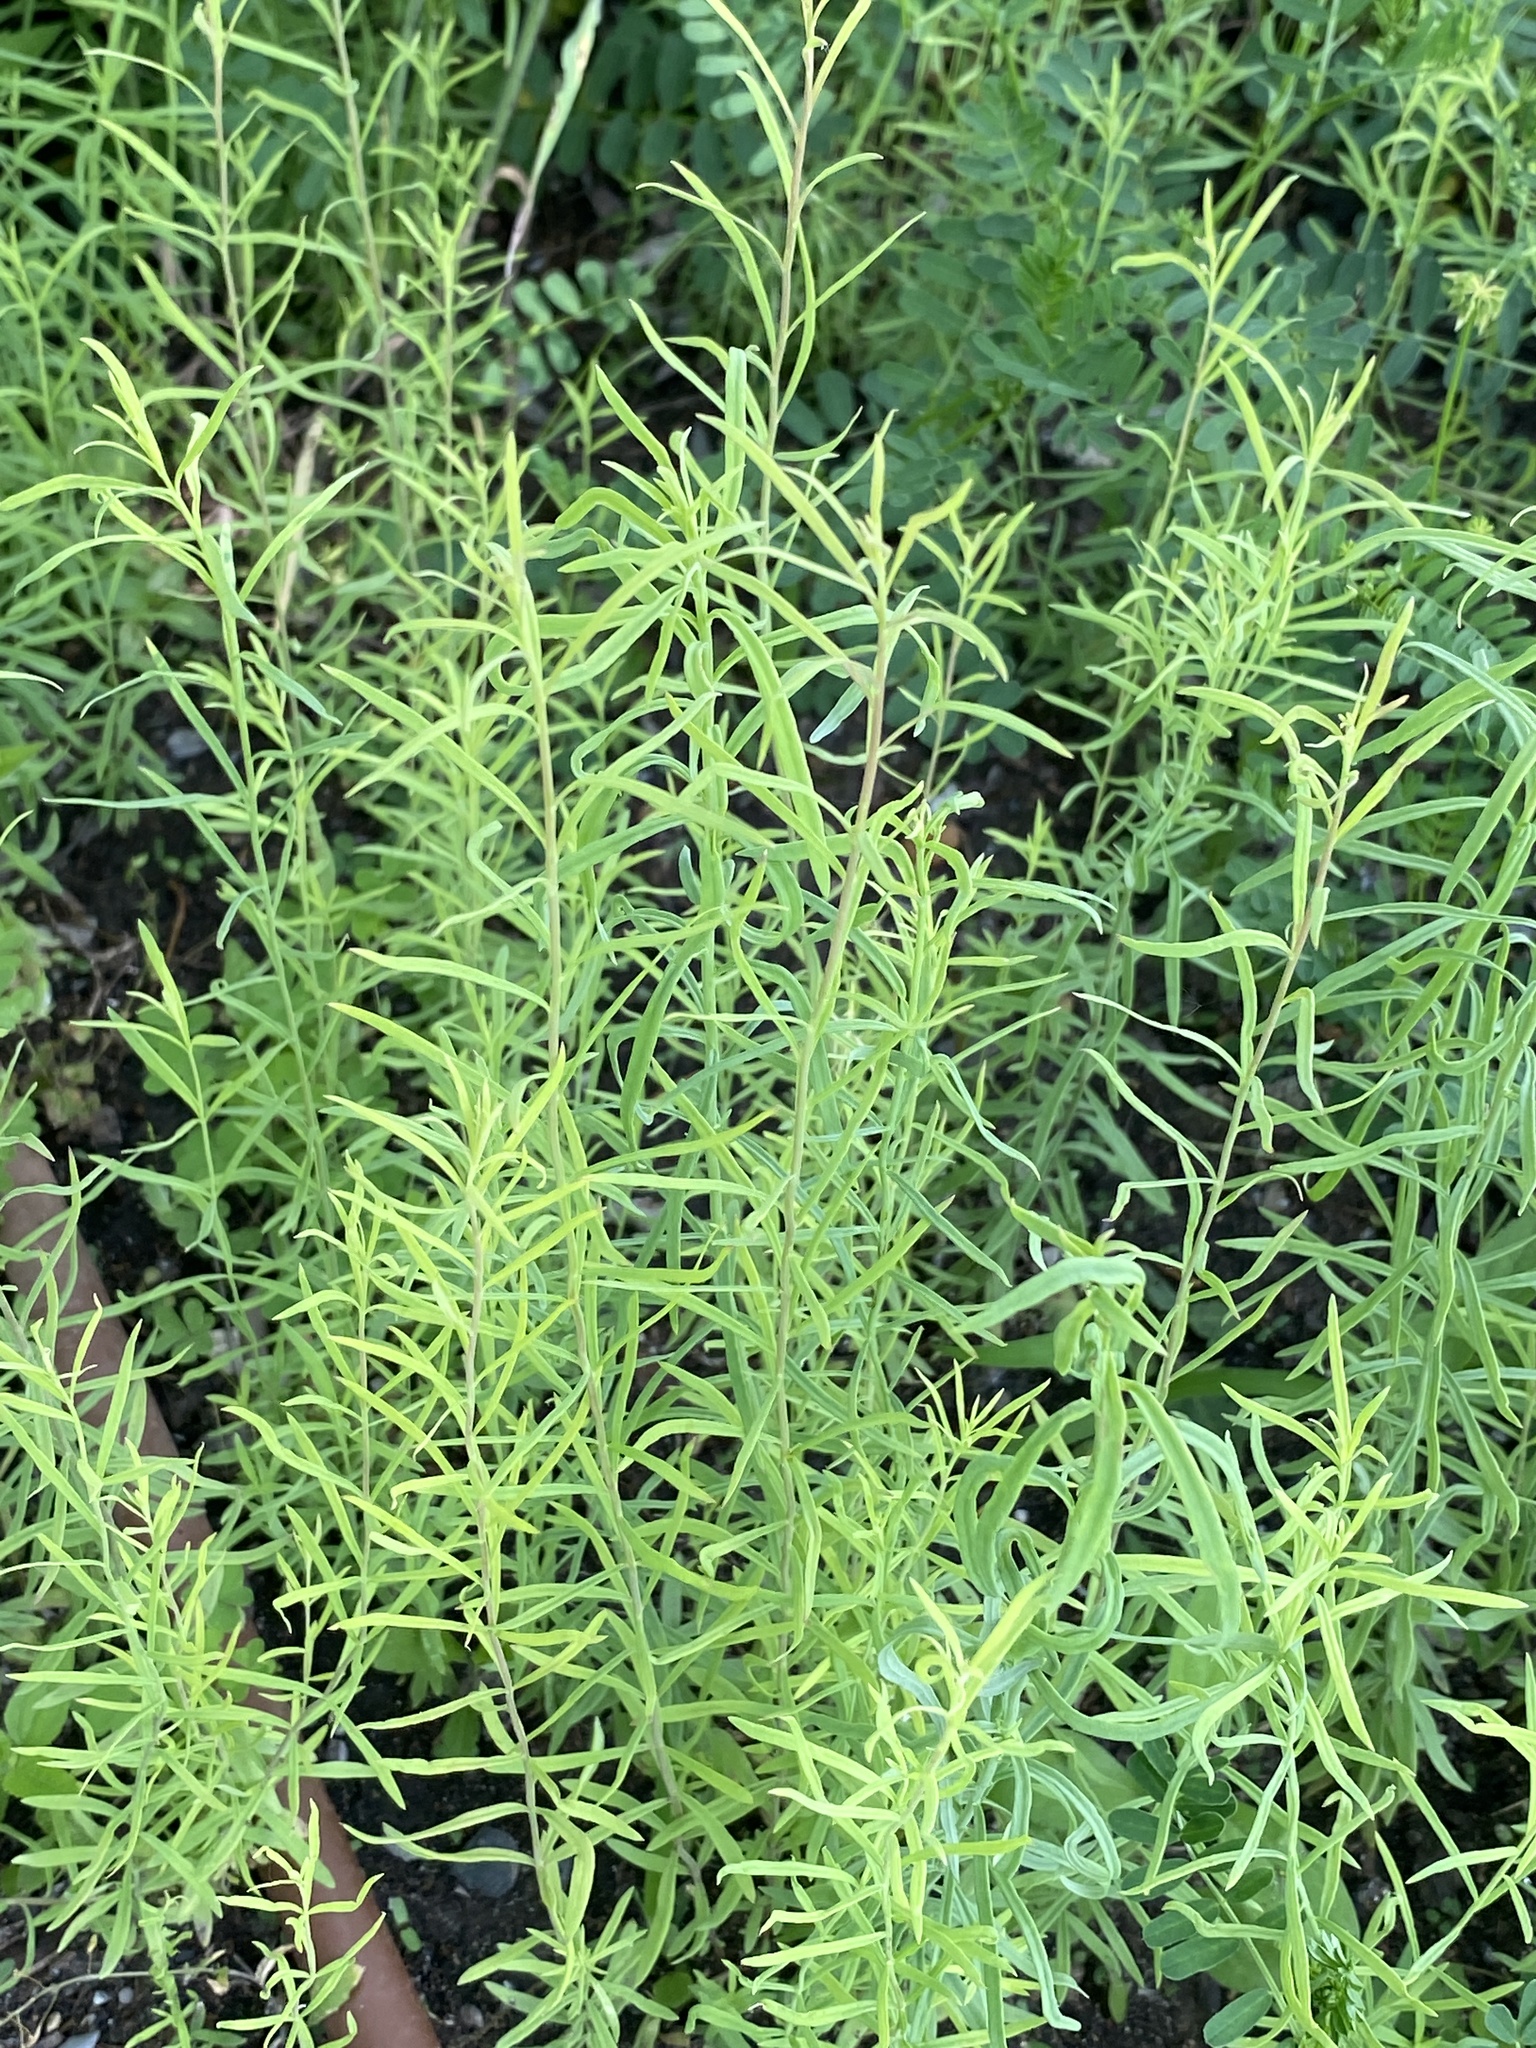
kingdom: Plantae
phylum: Tracheophyta
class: Magnoliopsida
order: Lamiales
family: Plantaginaceae
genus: Linaria
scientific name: Linaria vulgaris
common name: Butter and eggs
